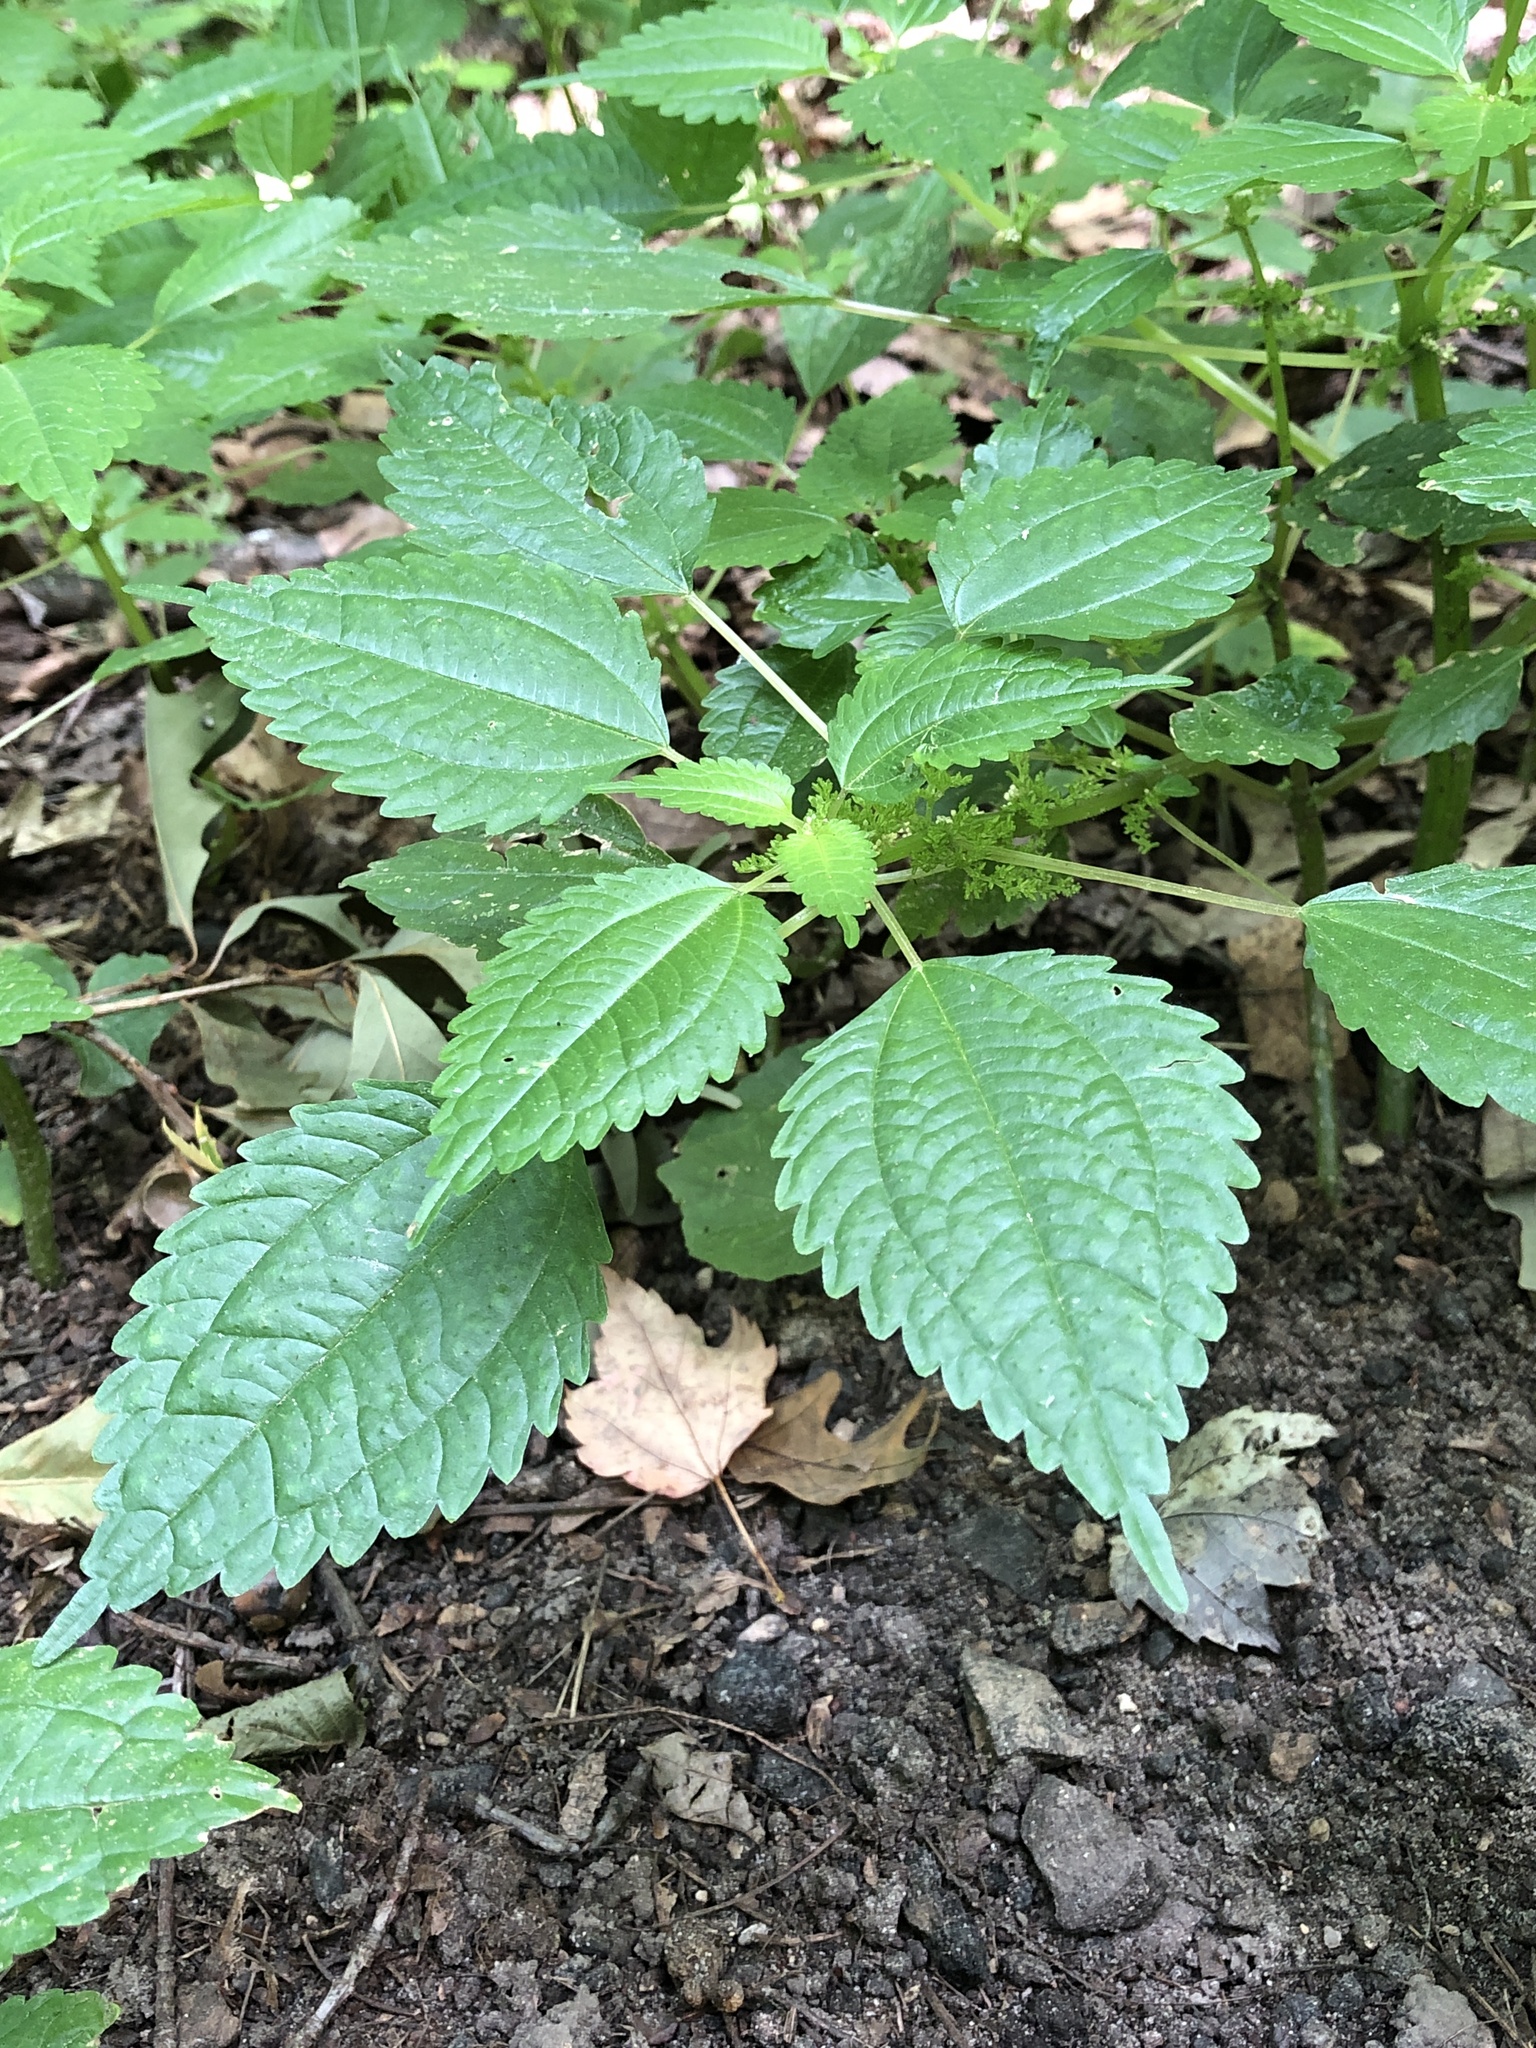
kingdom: Plantae
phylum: Tracheophyta
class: Magnoliopsida
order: Rosales
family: Urticaceae
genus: Pilea
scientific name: Pilea pumila
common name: Clearweed
